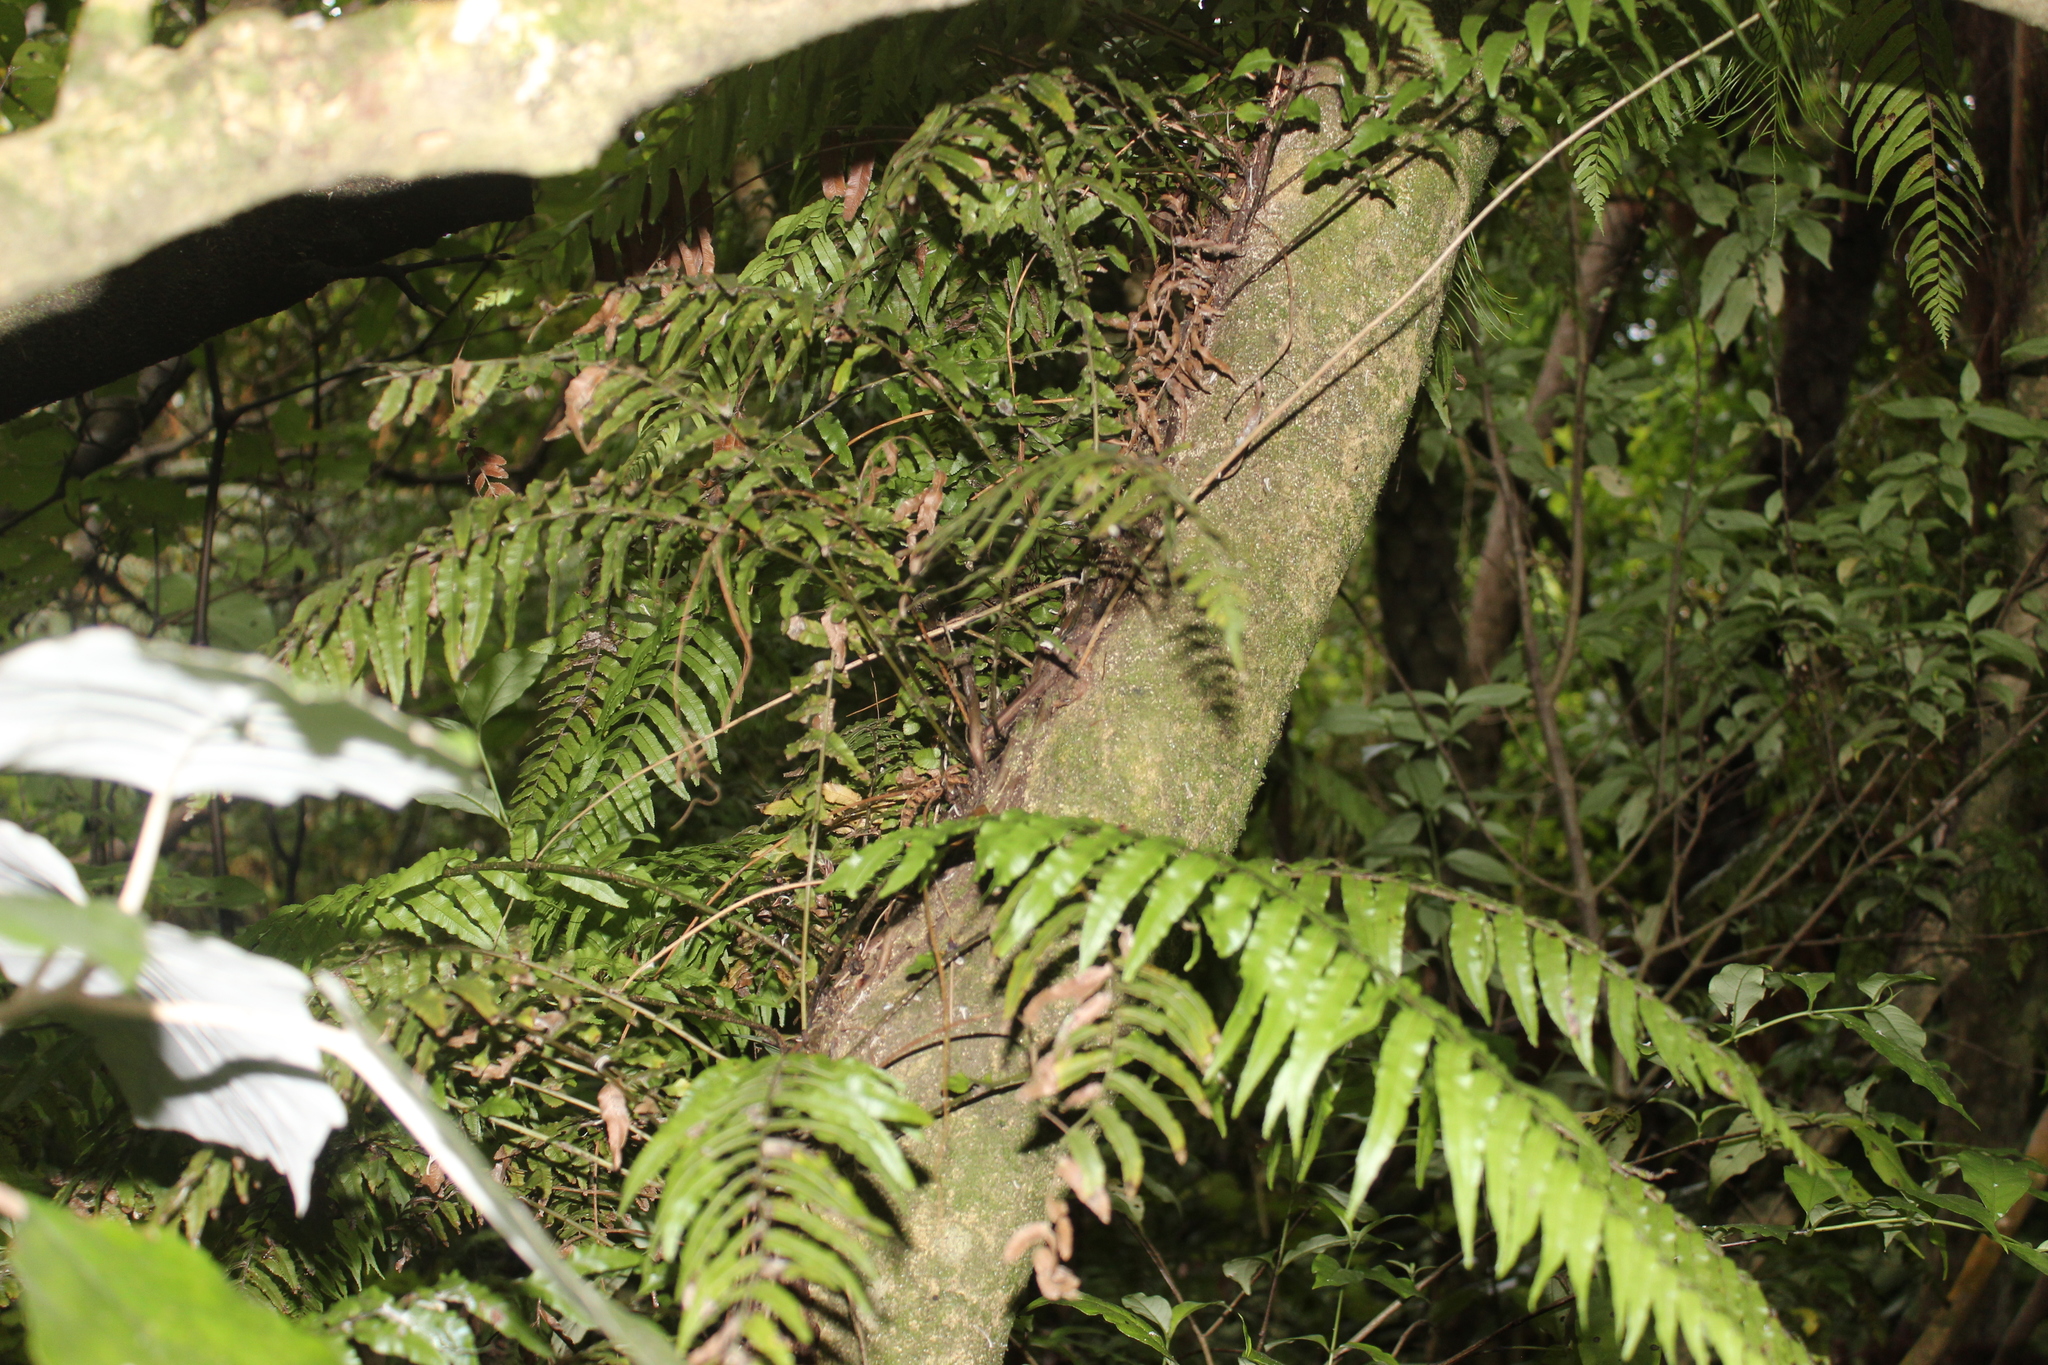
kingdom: Plantae
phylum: Tracheophyta
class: Polypodiopsida
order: Polypodiales
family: Blechnaceae
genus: Icarus
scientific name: Icarus filiformis
